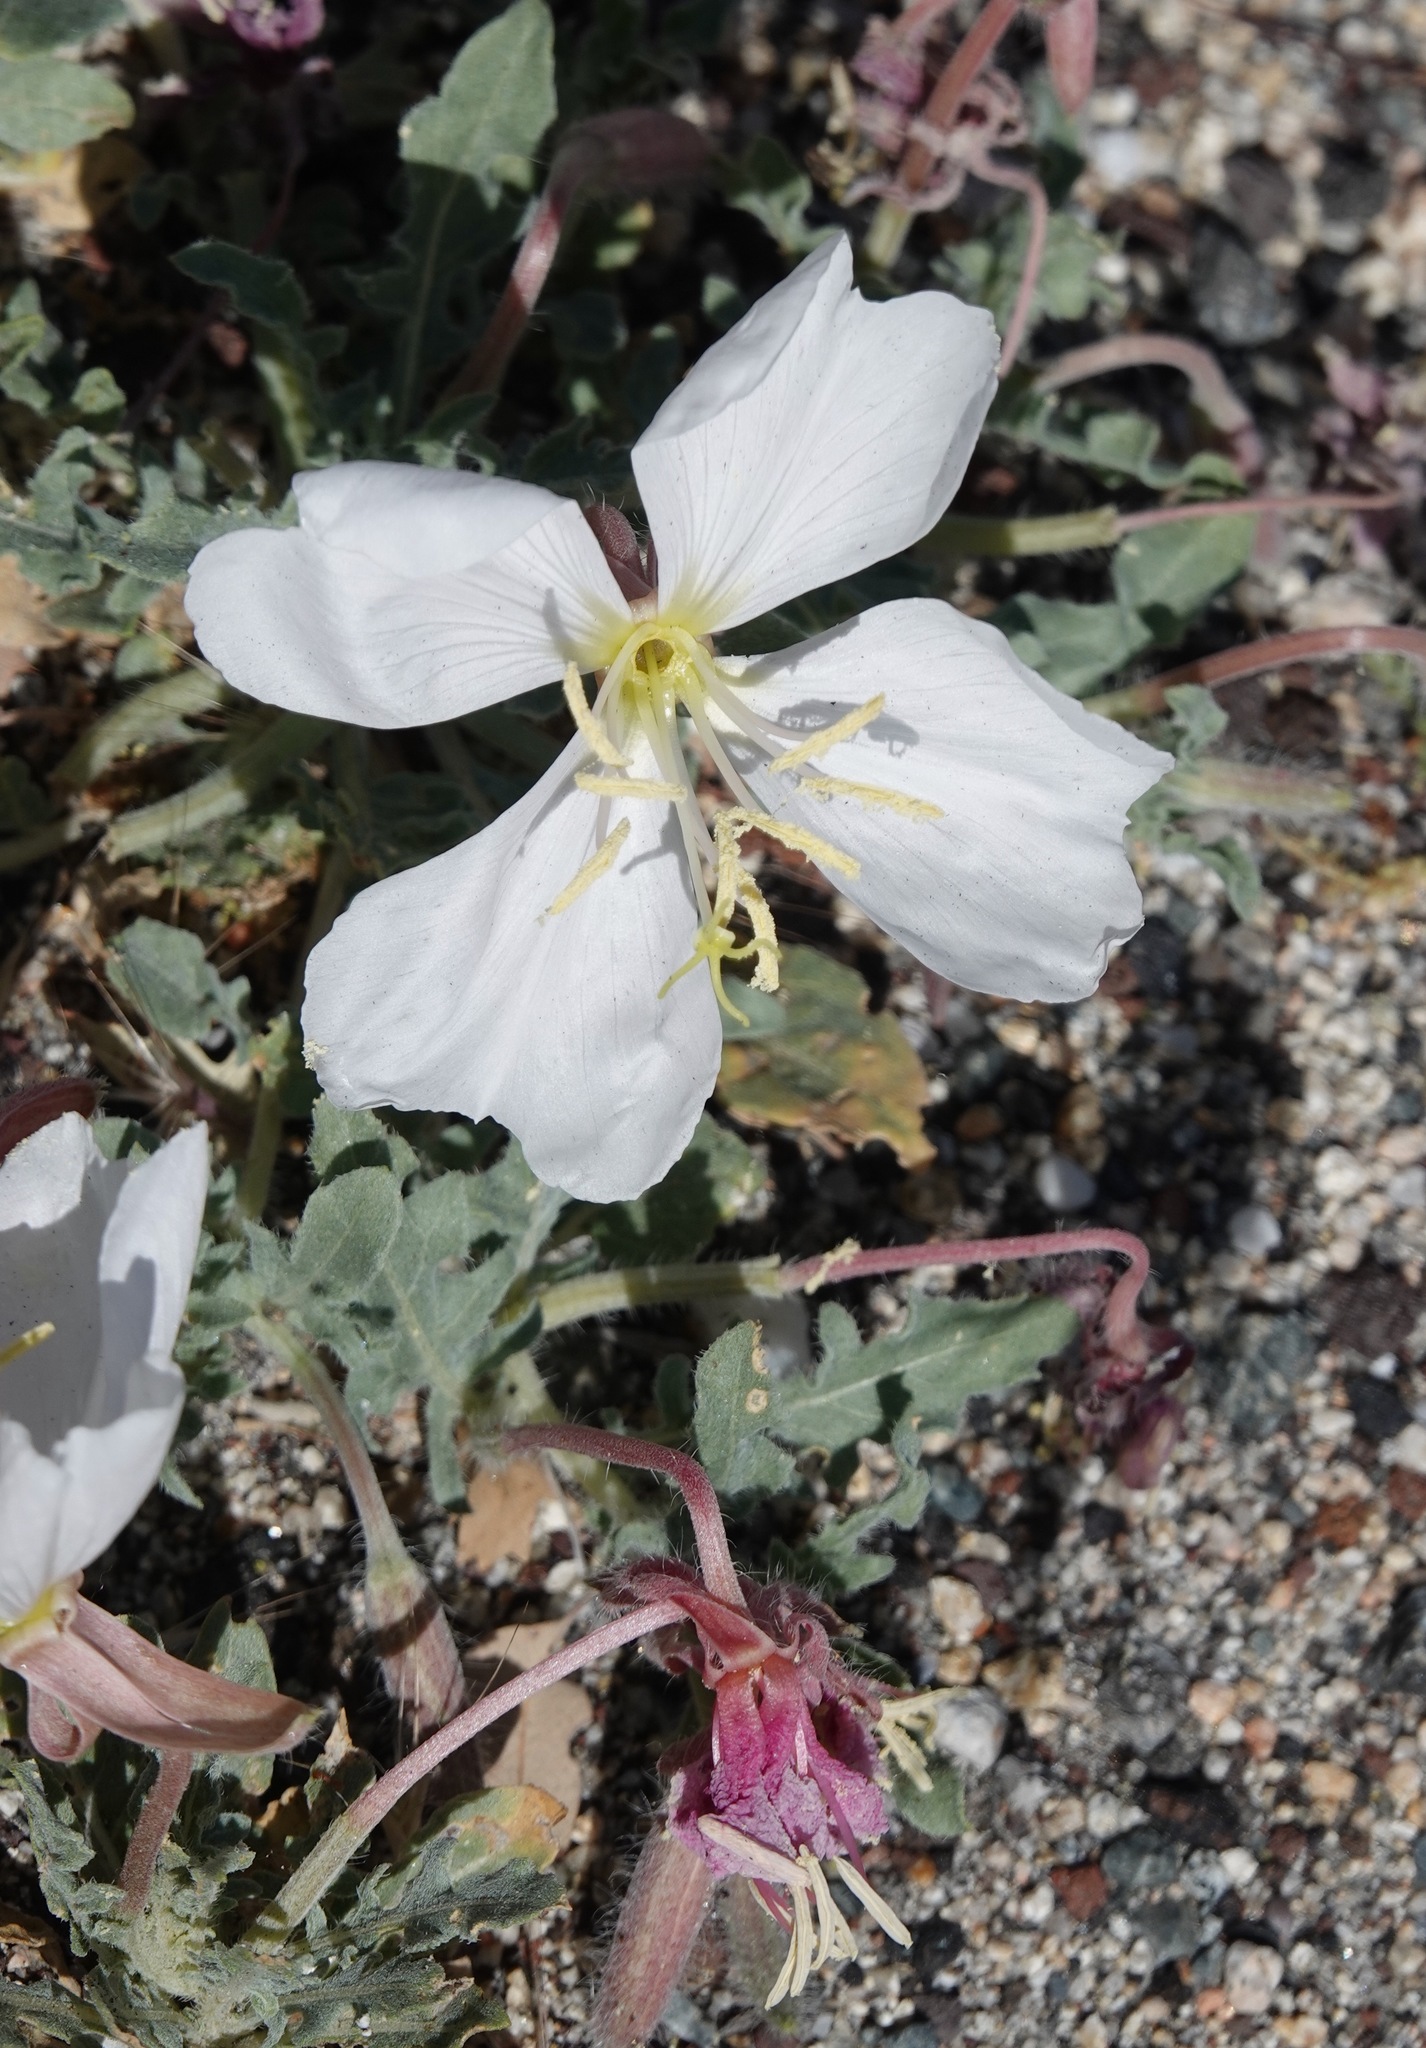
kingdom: Plantae
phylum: Tracheophyta
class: Magnoliopsida
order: Myrtales
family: Onagraceae
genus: Oenothera
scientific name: Oenothera californica
